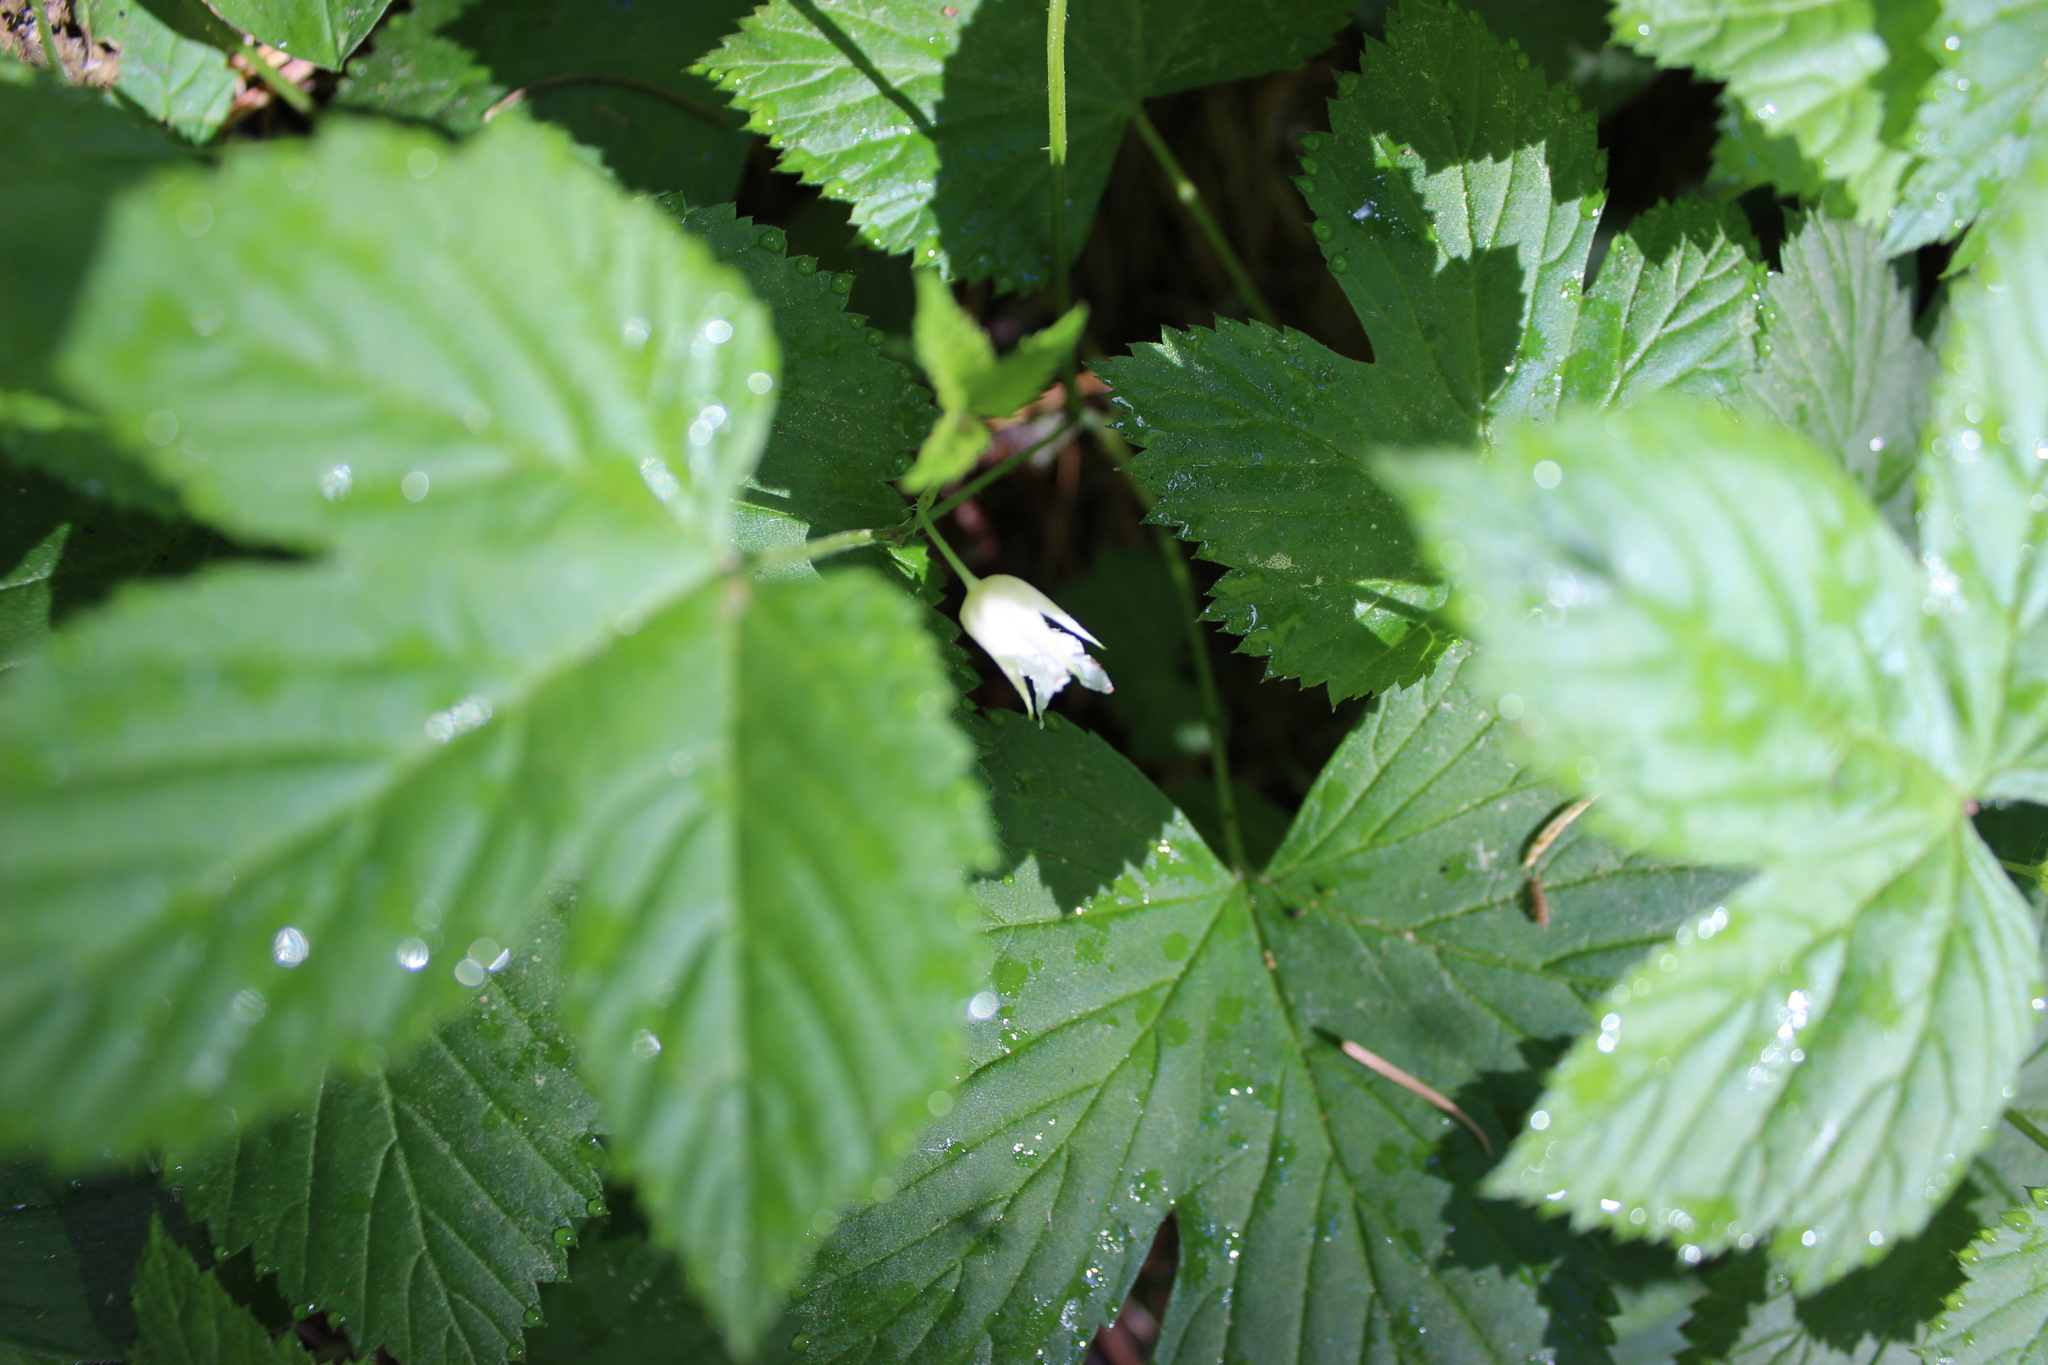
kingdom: Plantae
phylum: Tracheophyta
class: Magnoliopsida
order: Rosales
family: Rosaceae
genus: Rubus
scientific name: Rubus humulifolius
